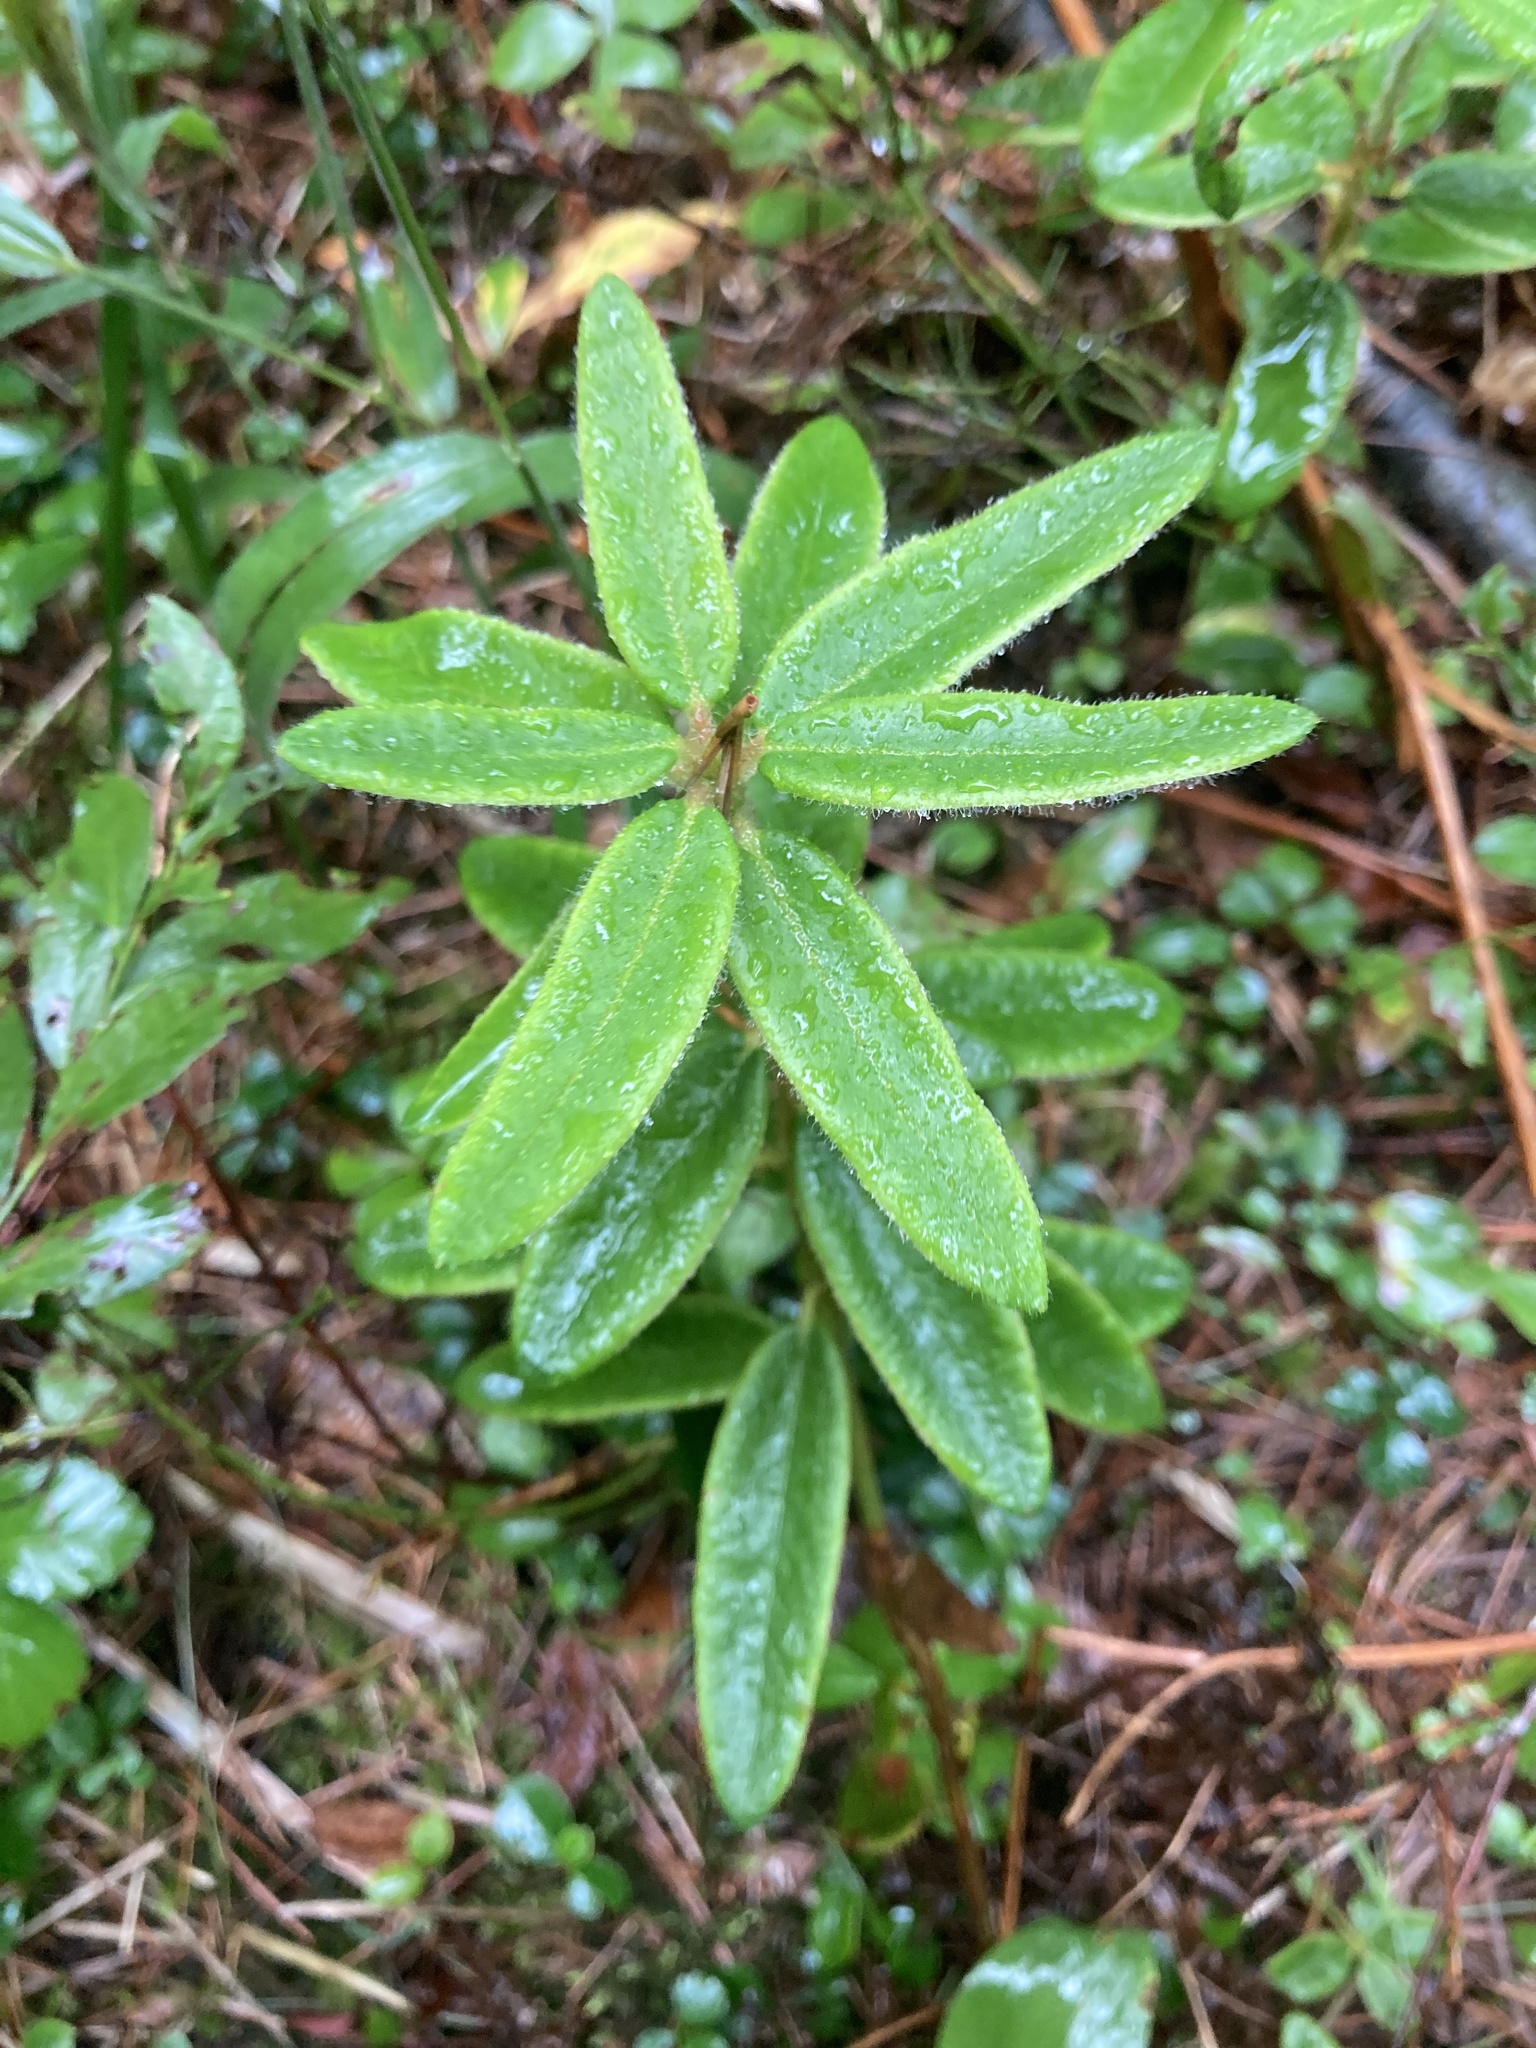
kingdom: Plantae
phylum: Tracheophyta
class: Magnoliopsida
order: Ericales
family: Ericaceae
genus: Rhododendron
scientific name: Rhododendron groenlandicum
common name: Bog labrador tea
